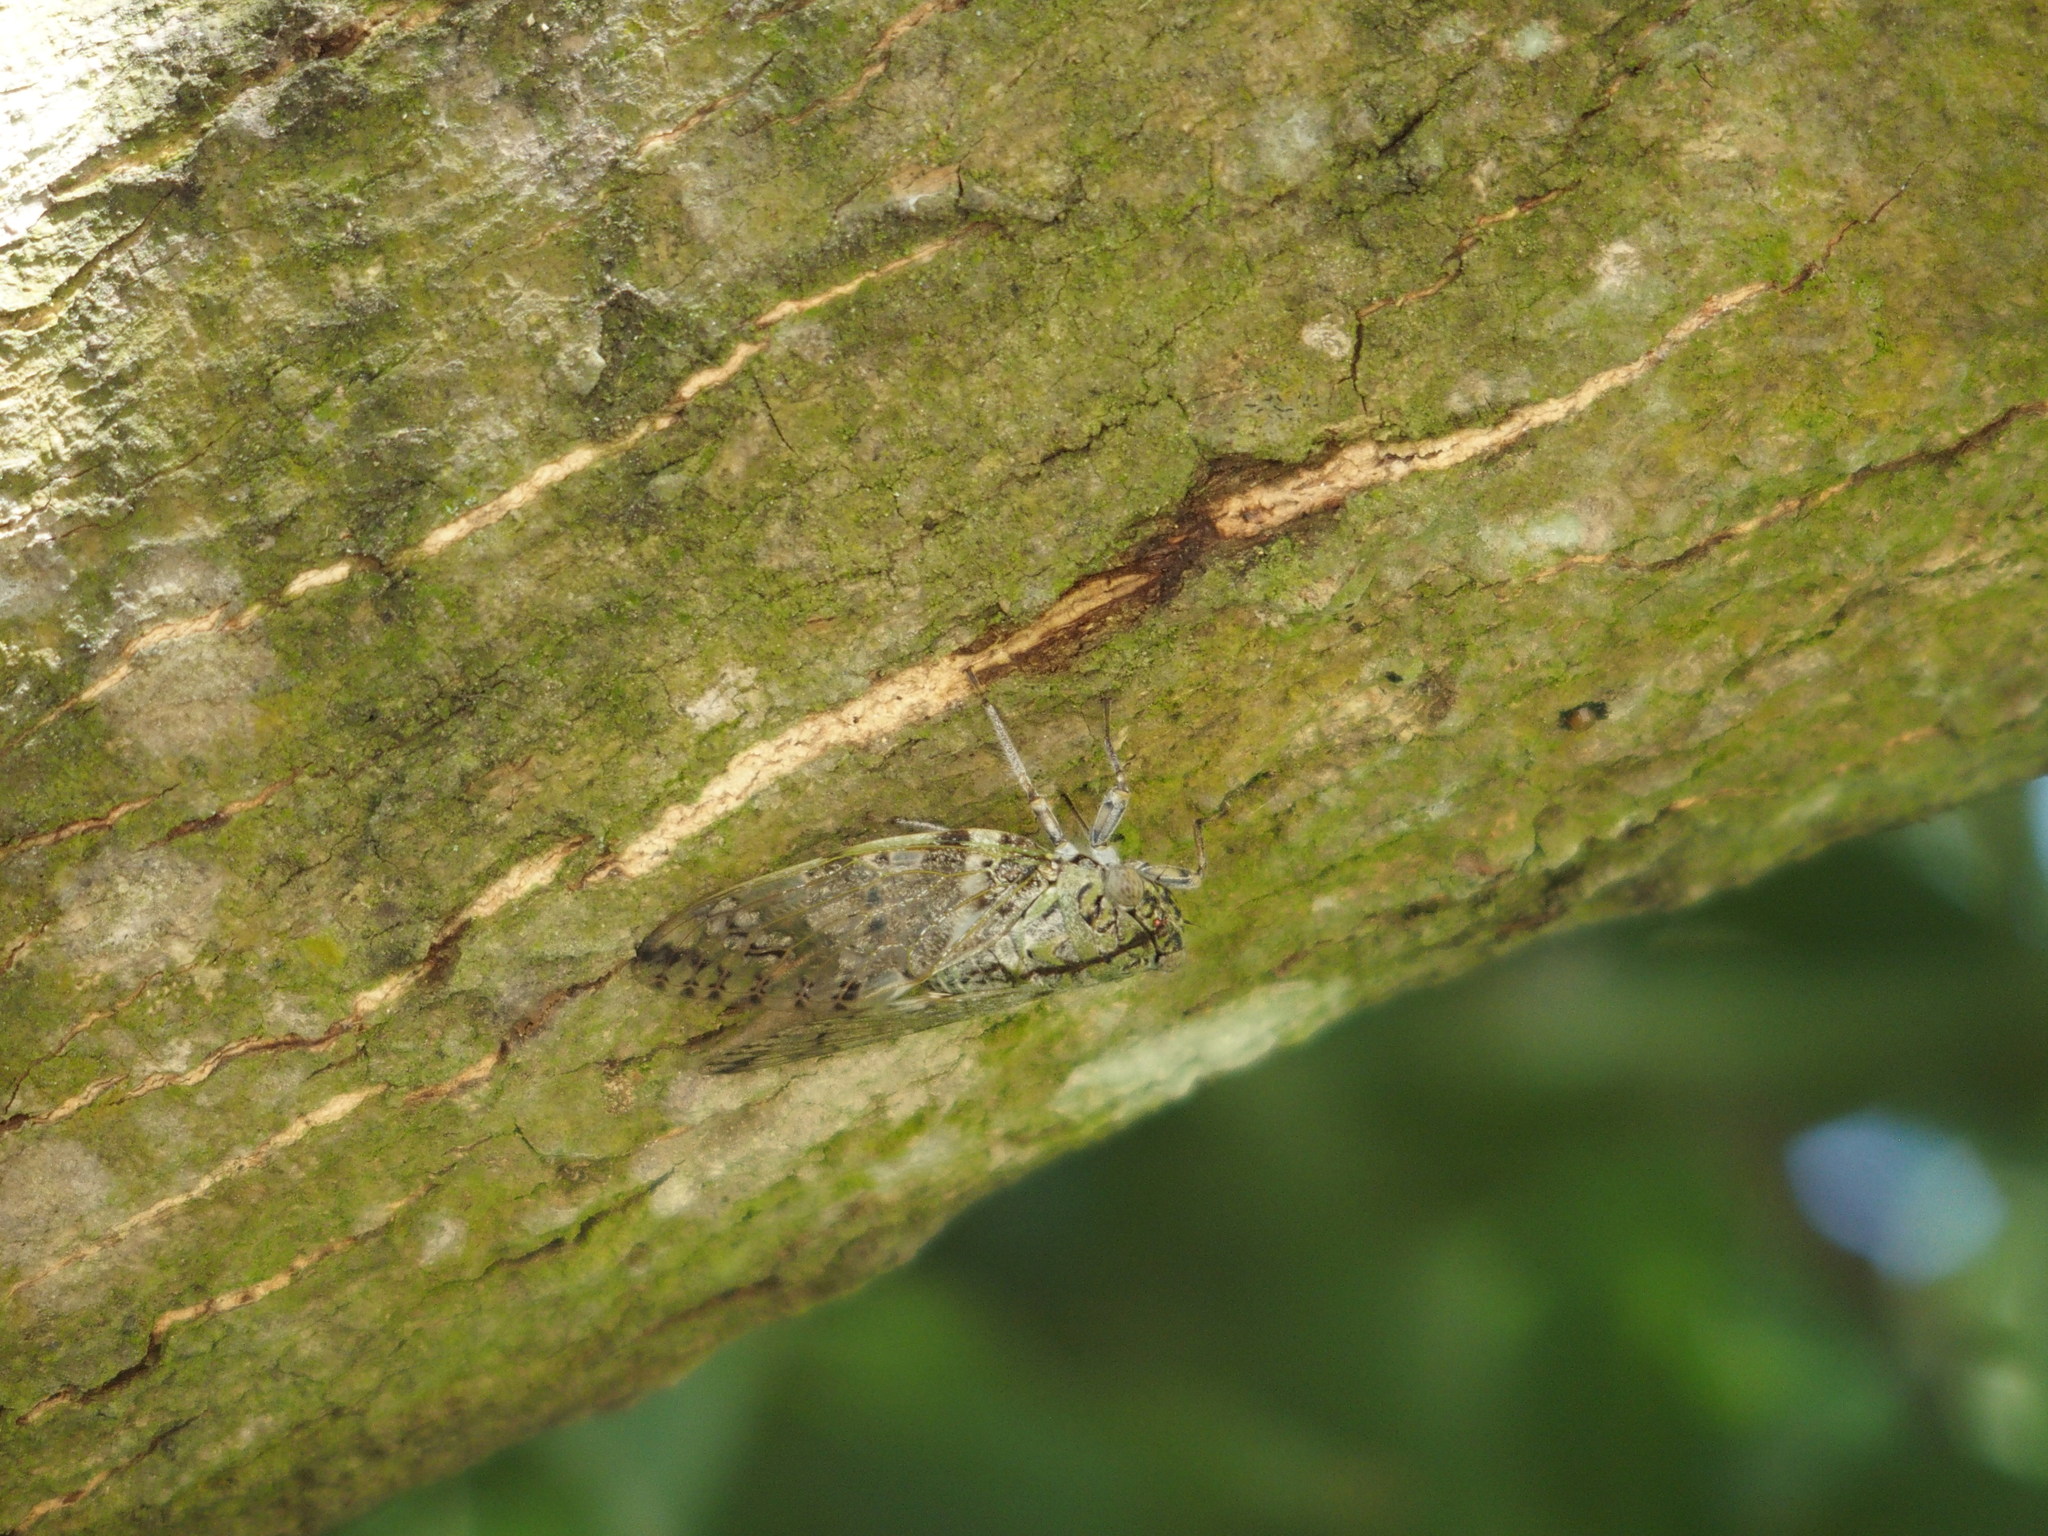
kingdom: Animalia
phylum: Arthropoda
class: Insecta
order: Hemiptera
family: Cicadidae
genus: Platypleura
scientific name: Platypleura takasagona
